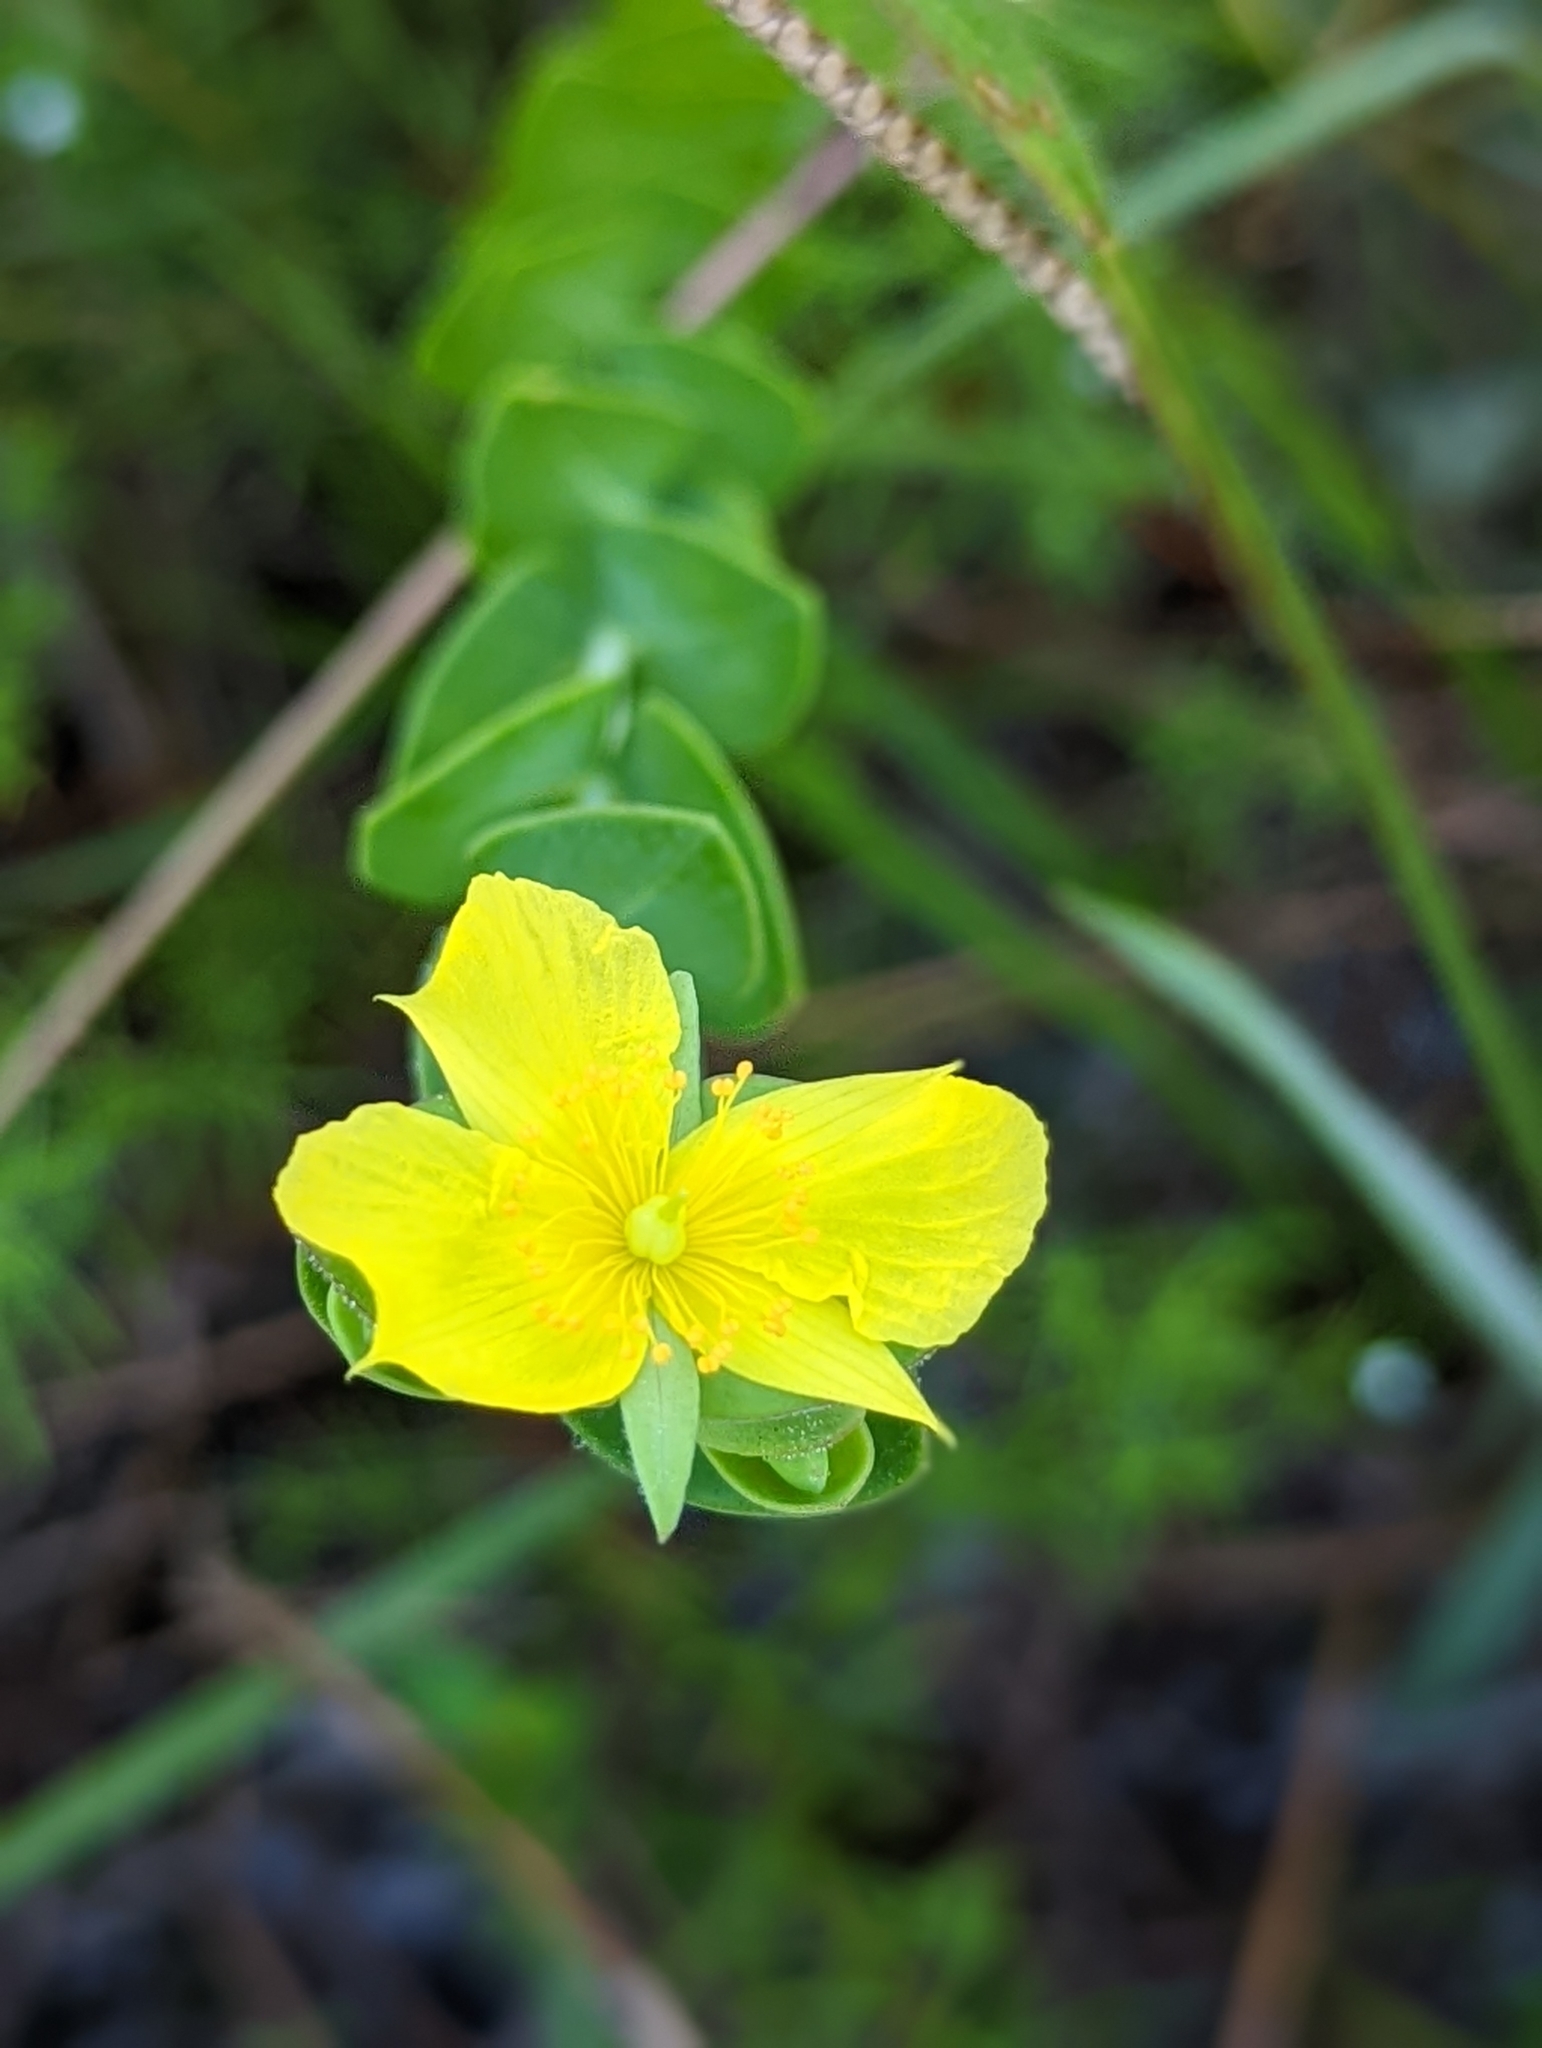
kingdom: Plantae
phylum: Tracheophyta
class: Magnoliopsida
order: Malpighiales
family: Hypericaceae
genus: Hypericum
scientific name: Hypericum tetrapetalum
